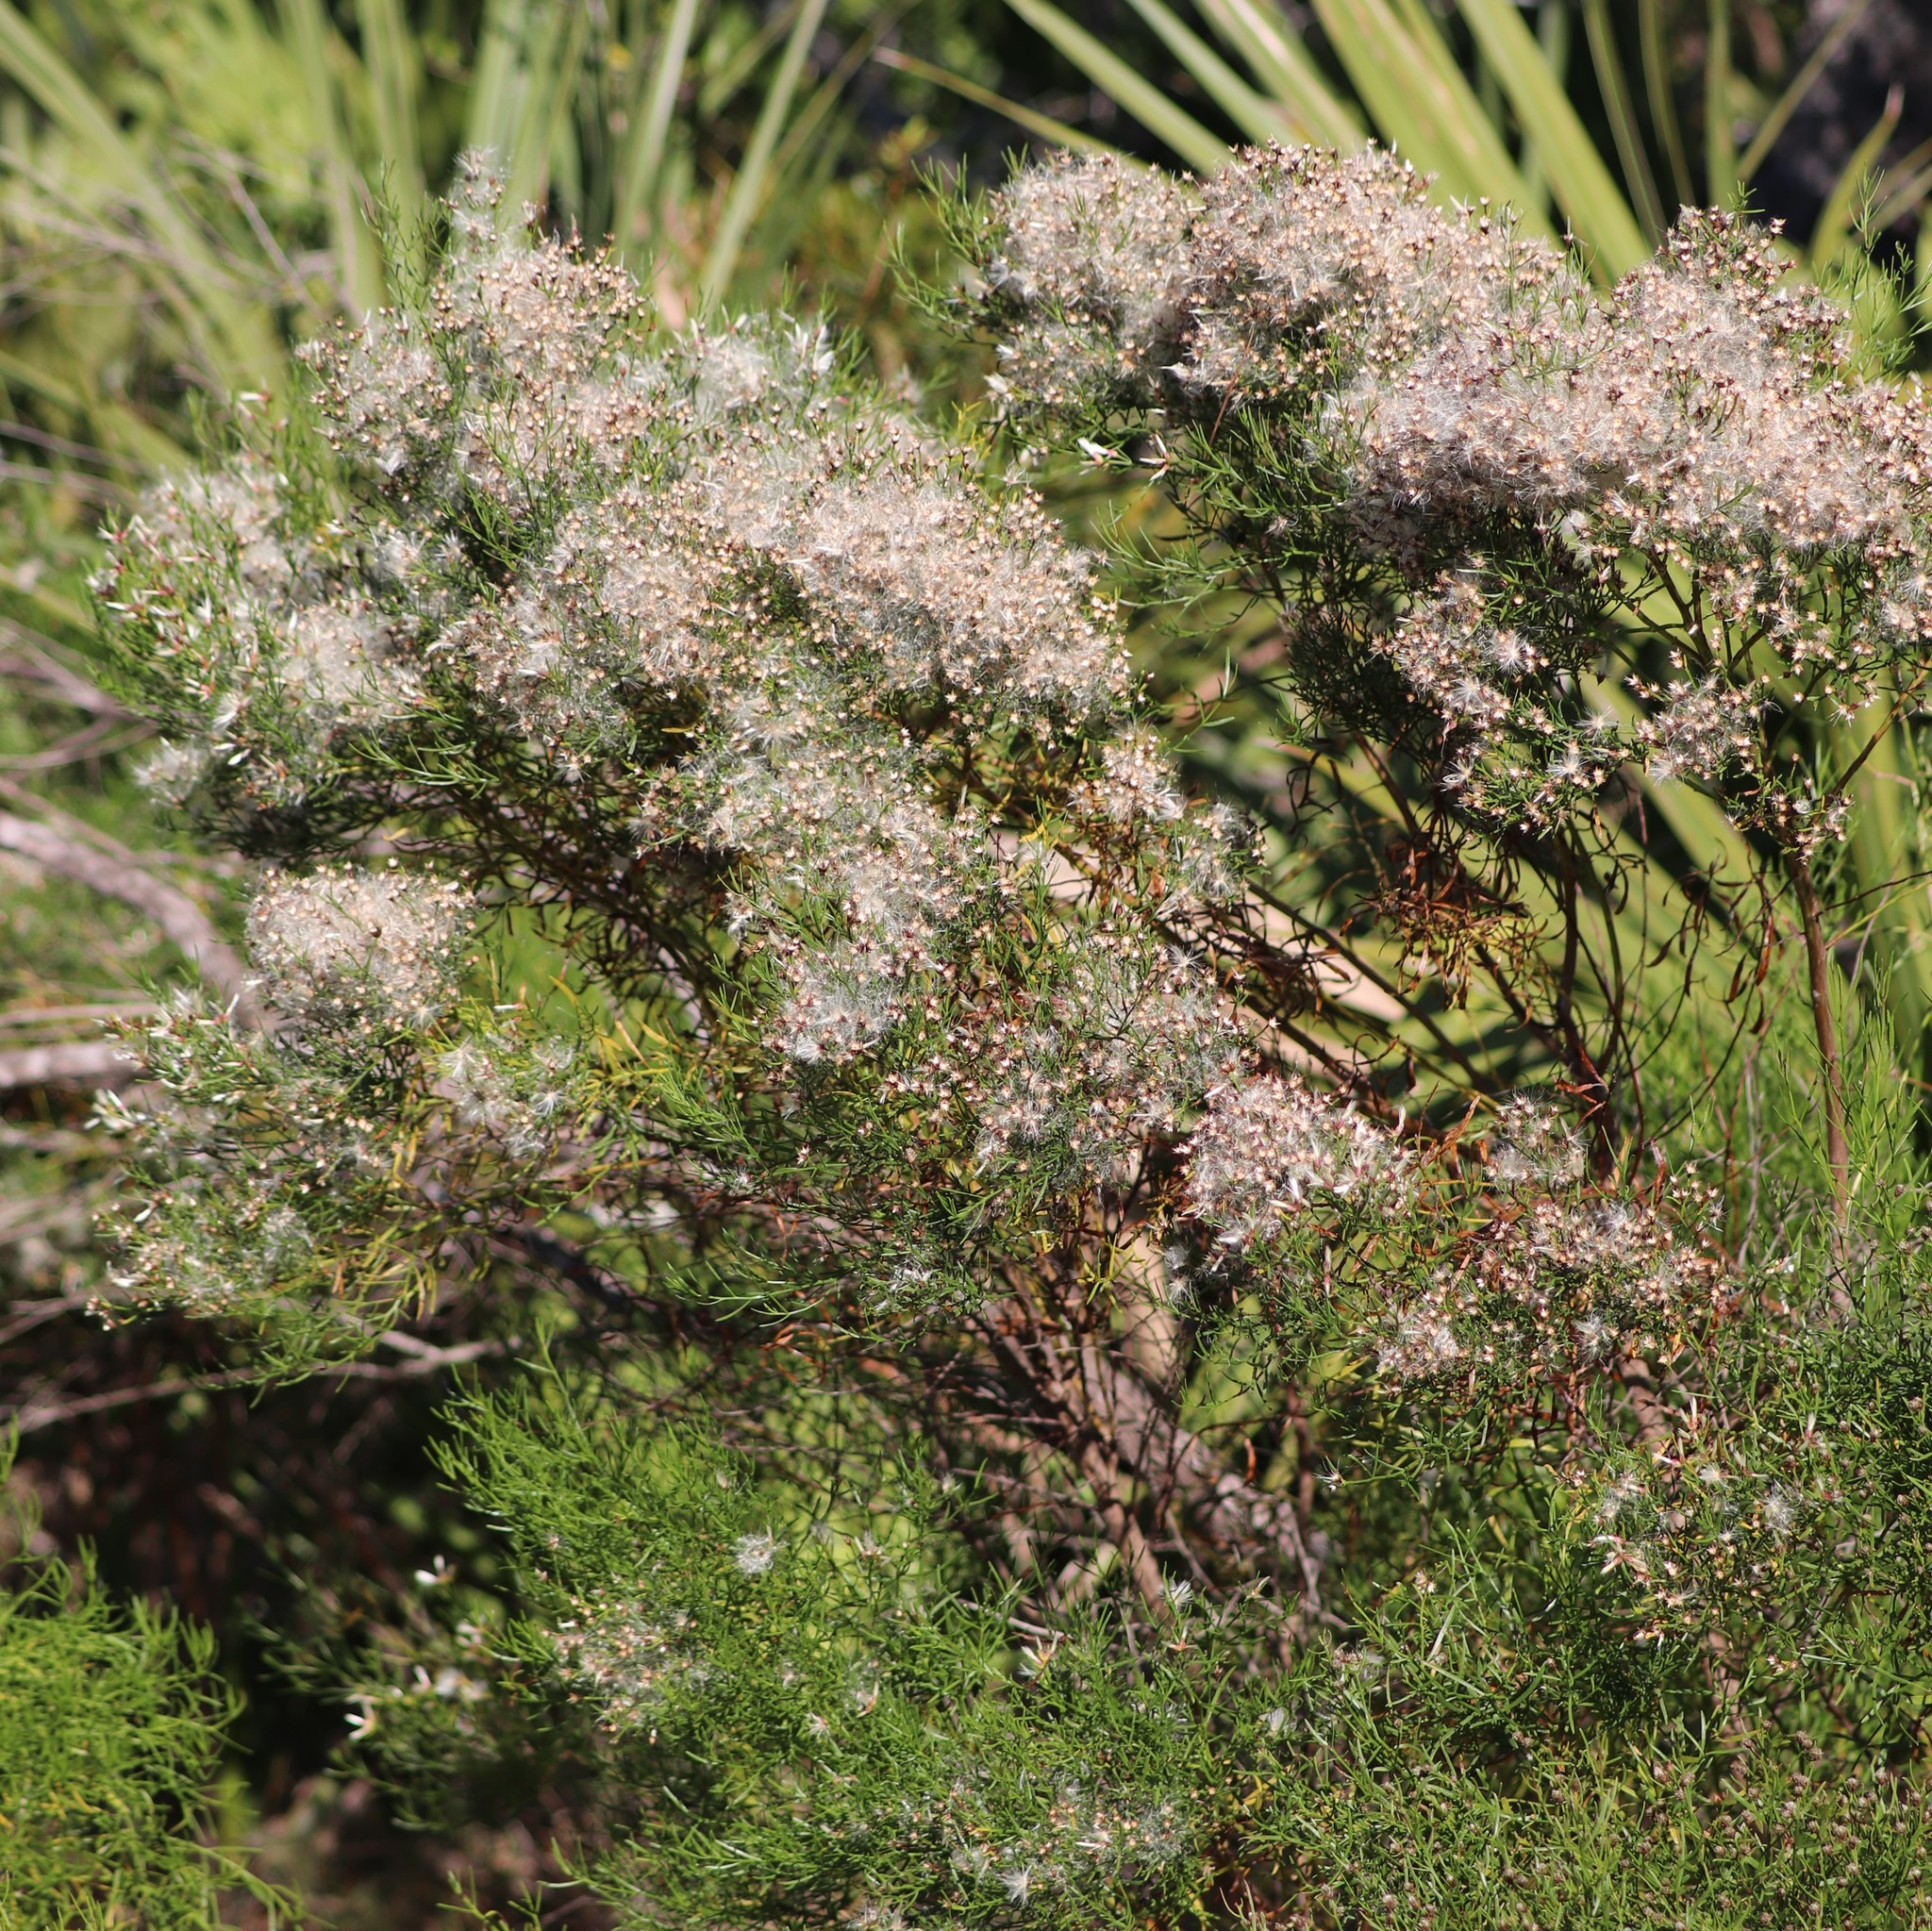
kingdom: Plantae
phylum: Tracheophyta
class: Magnoliopsida
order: Asterales
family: Asteraceae
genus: Baccharis
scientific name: Baccharis angustifolia
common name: Narrow-leaf baccharis
